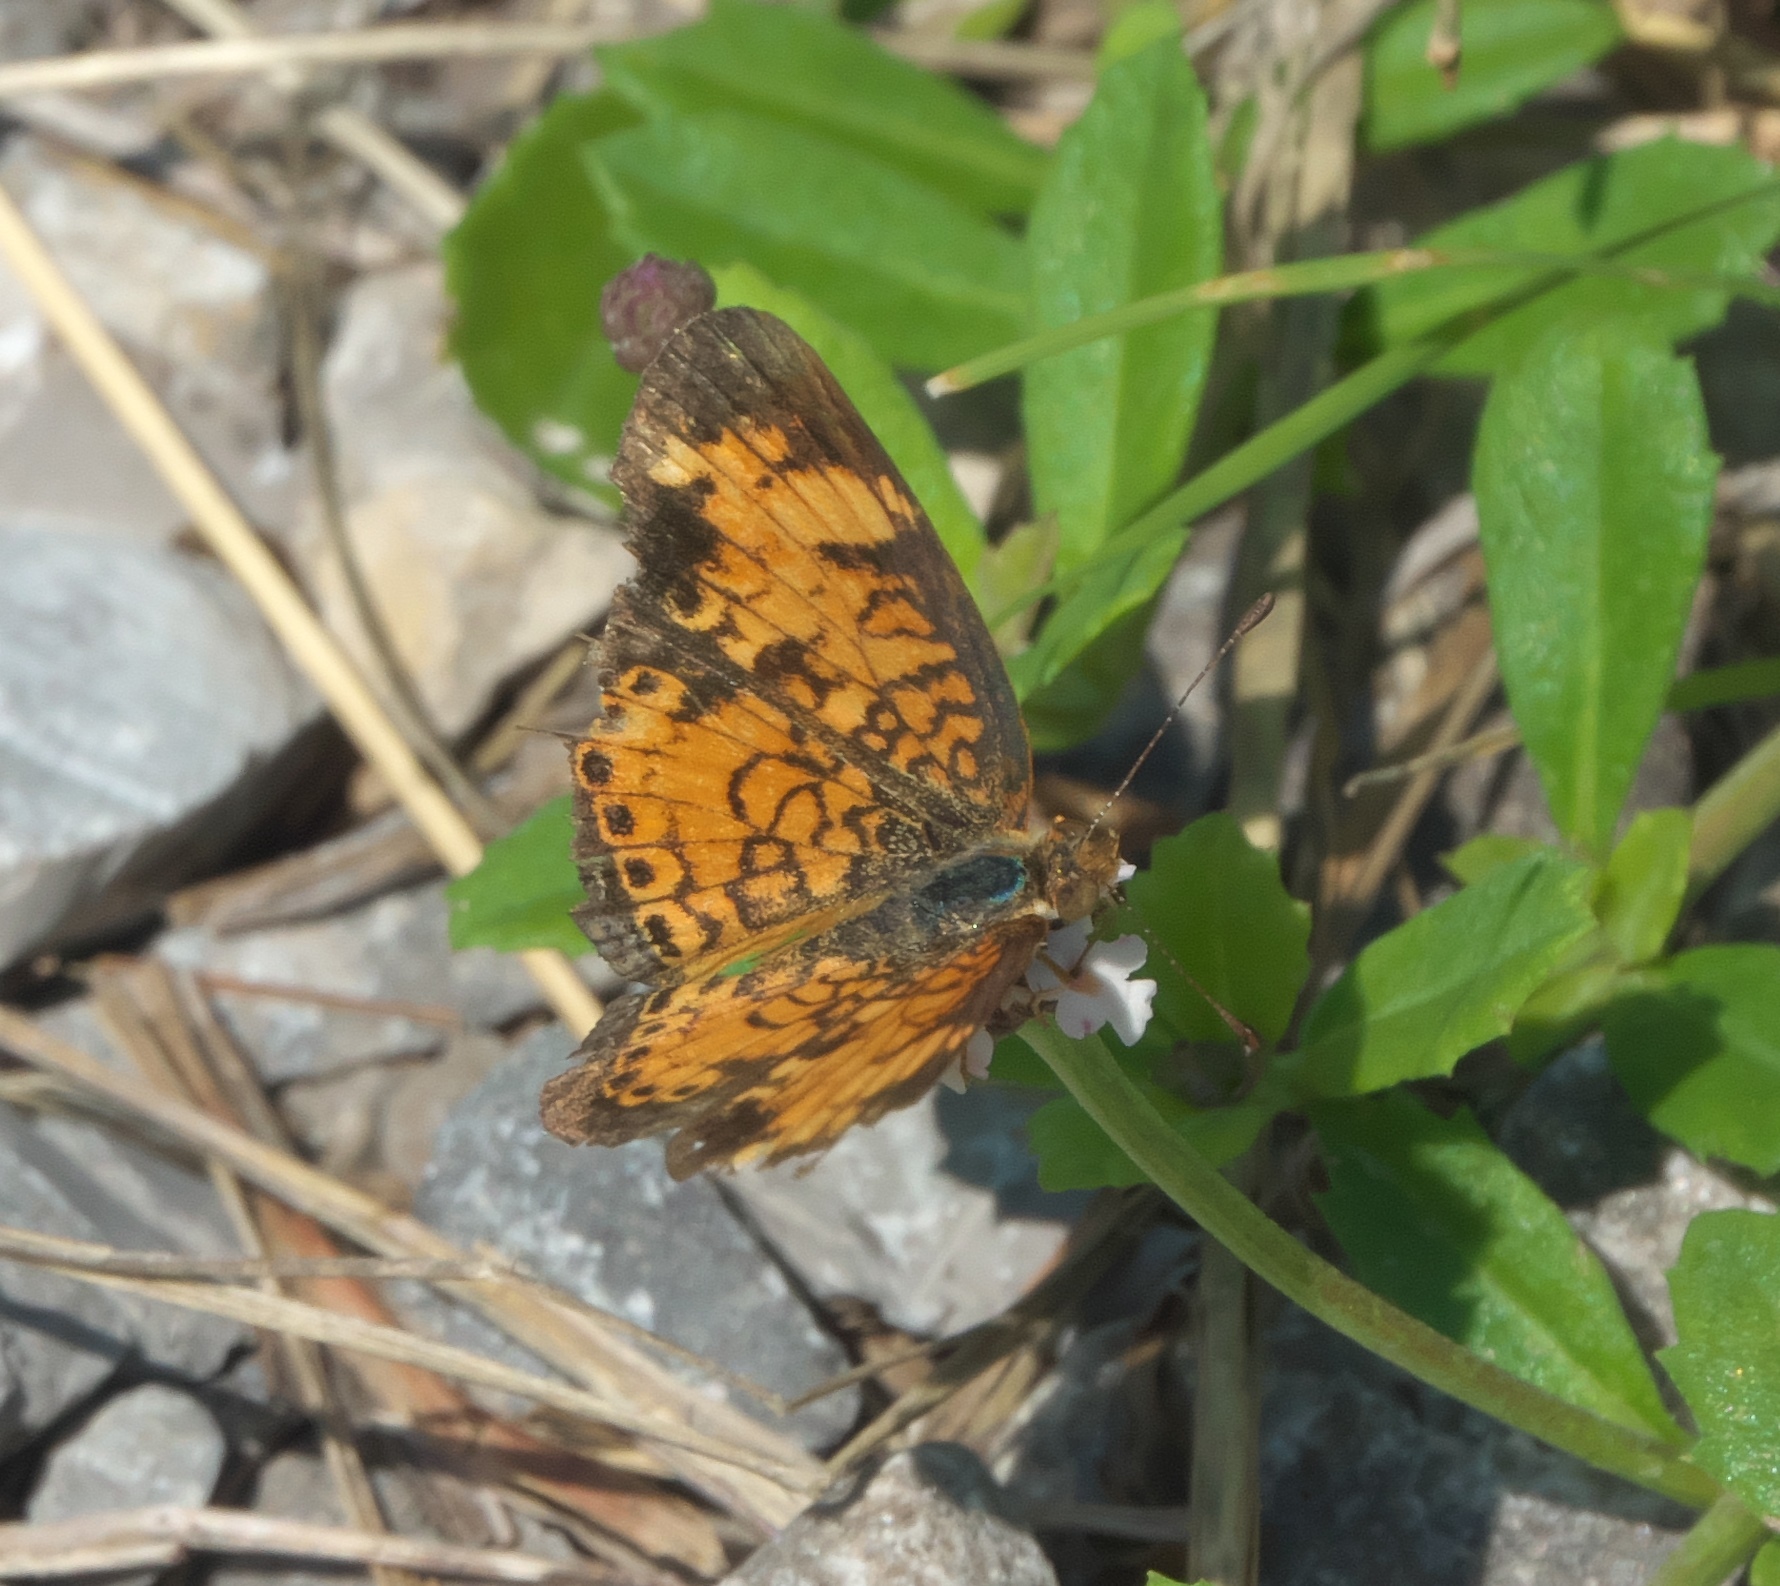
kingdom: Animalia
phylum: Arthropoda
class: Insecta
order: Lepidoptera
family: Nymphalidae
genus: Phyciodes
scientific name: Phyciodes tharos
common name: Pearl crescent
